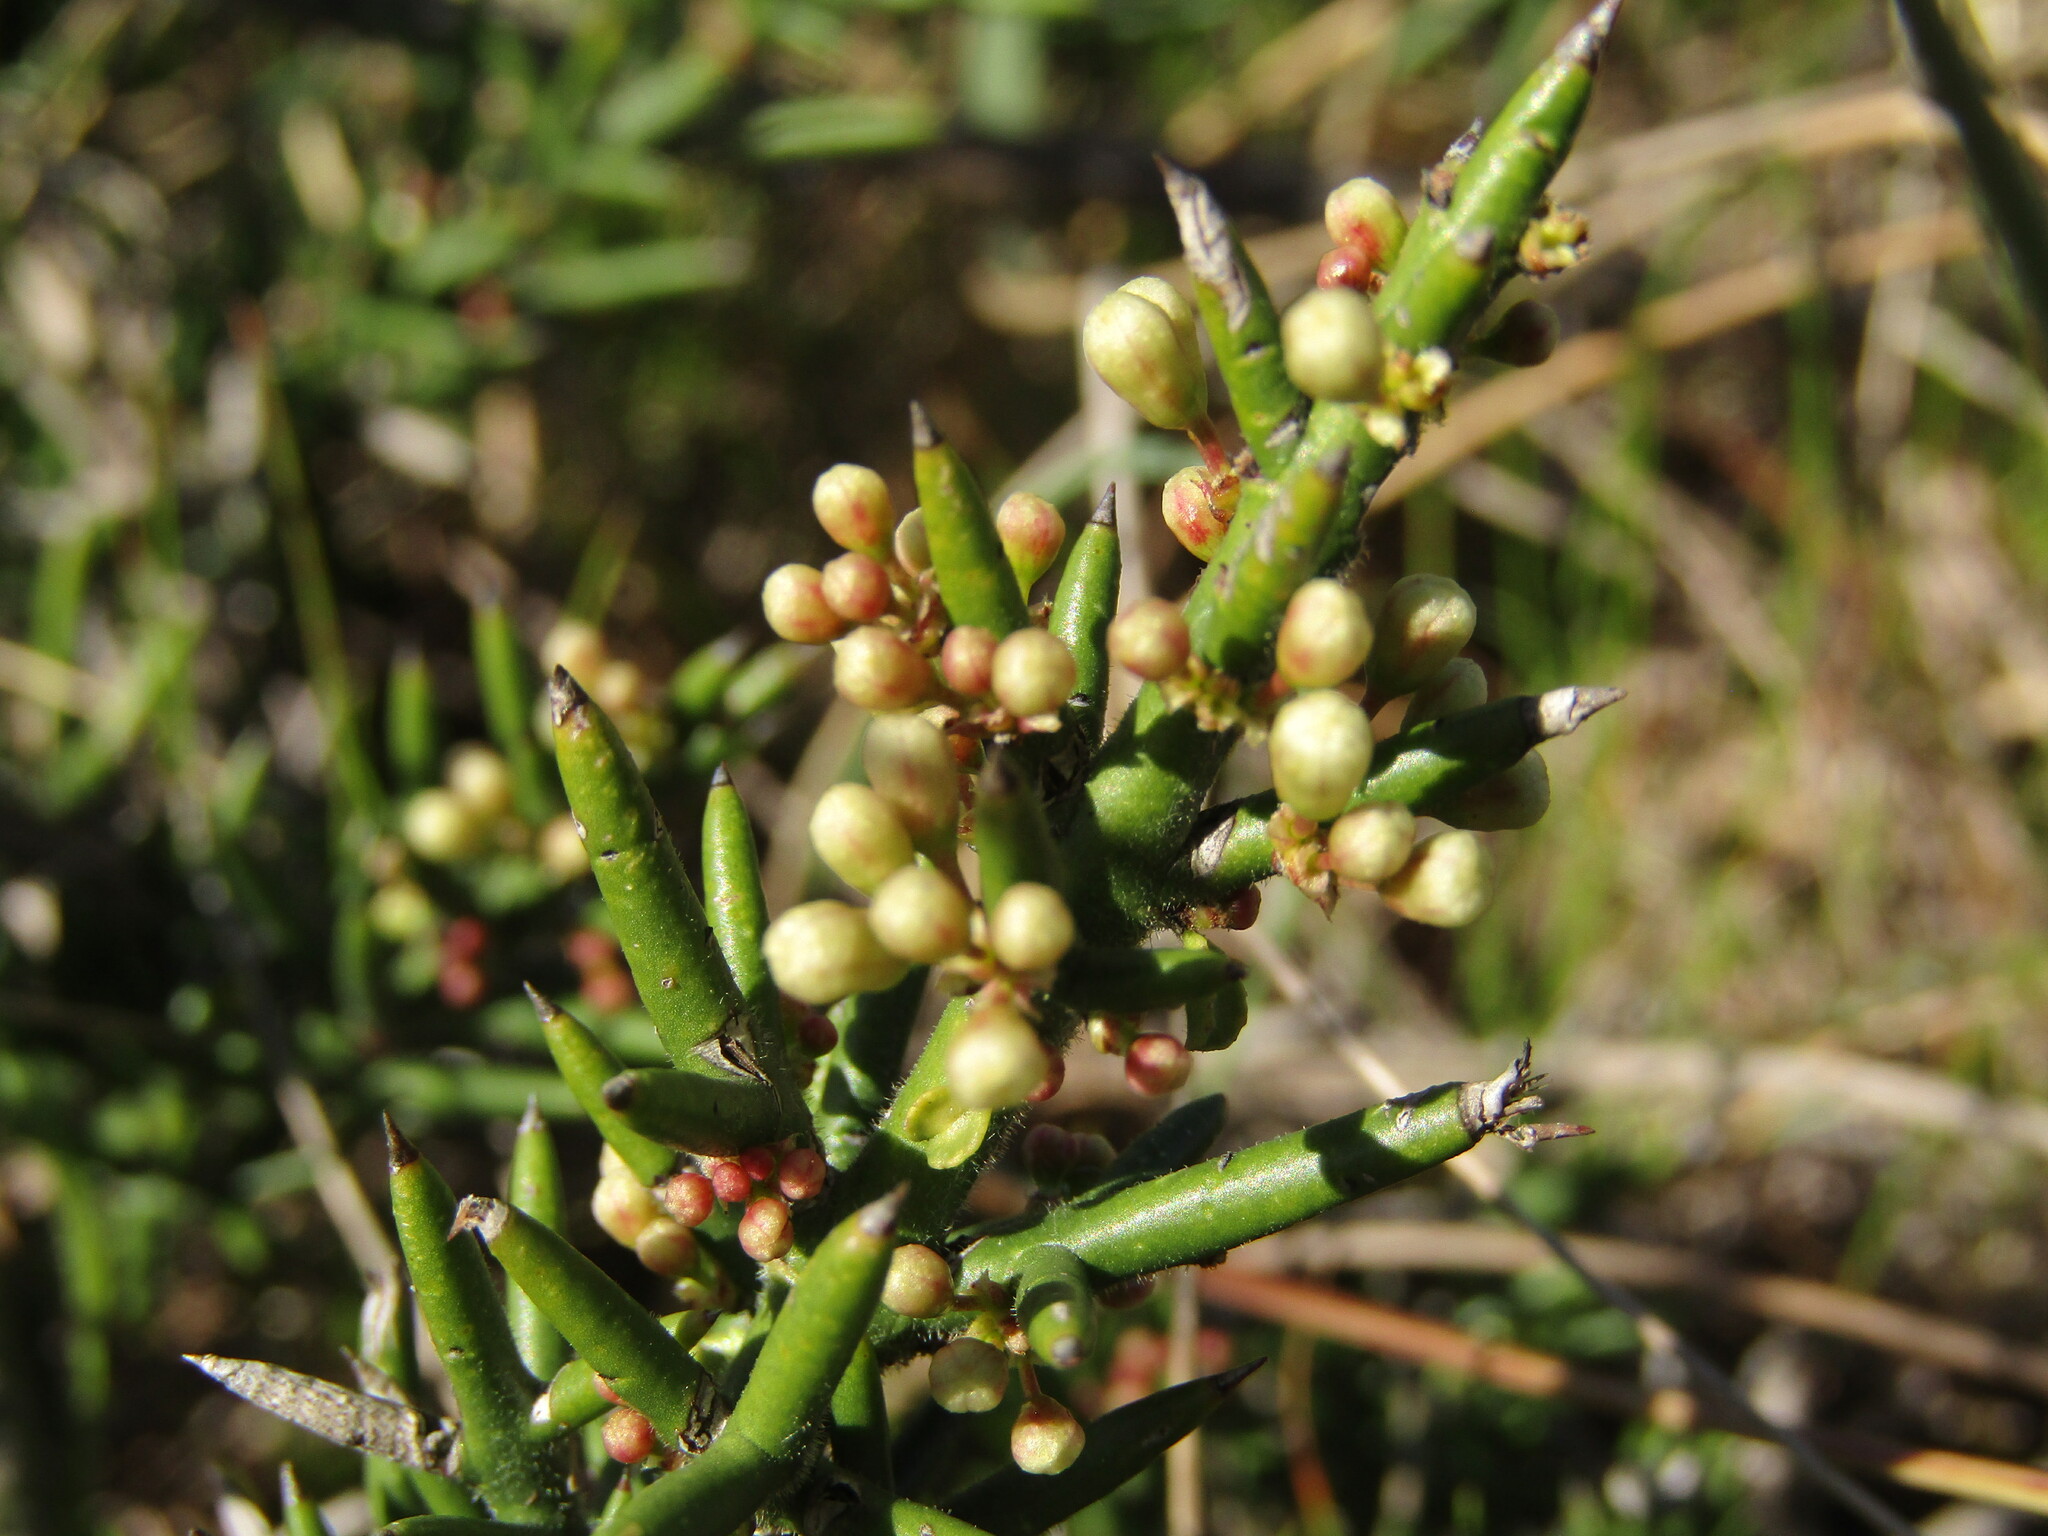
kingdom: Plantae
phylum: Tracheophyta
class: Magnoliopsida
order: Rosales
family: Rhamnaceae
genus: Colletia
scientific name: Colletia hystrix
